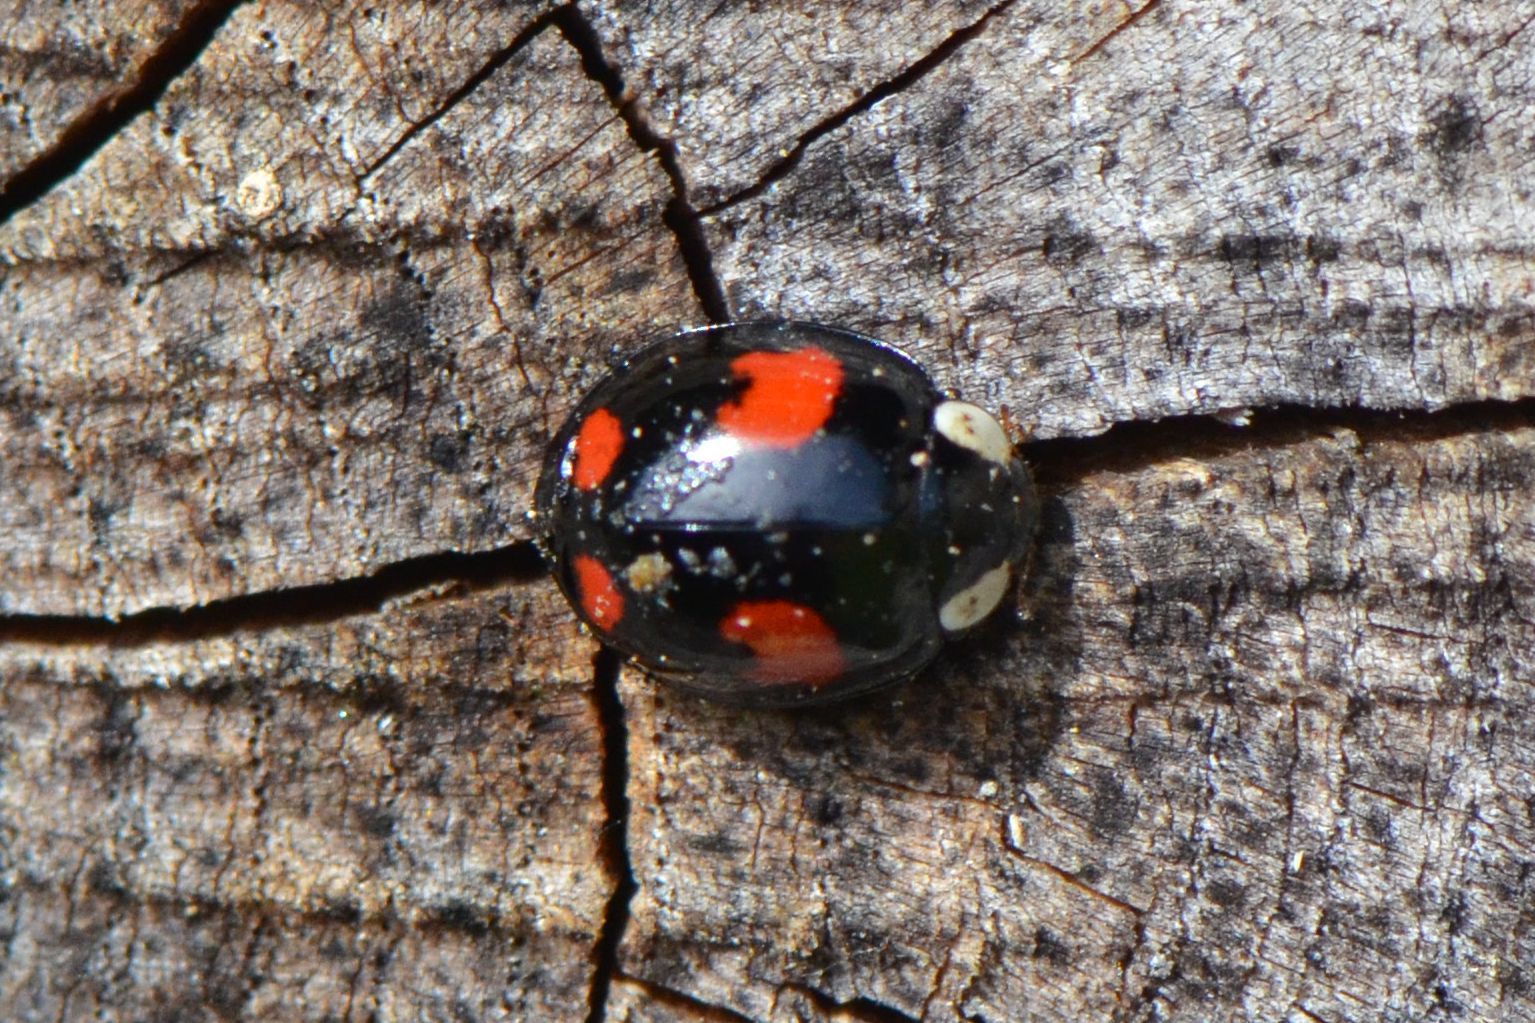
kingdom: Animalia
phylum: Arthropoda
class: Insecta
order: Coleoptera
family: Coccinellidae
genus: Harmonia
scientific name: Harmonia axyridis
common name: Harlequin ladybird
